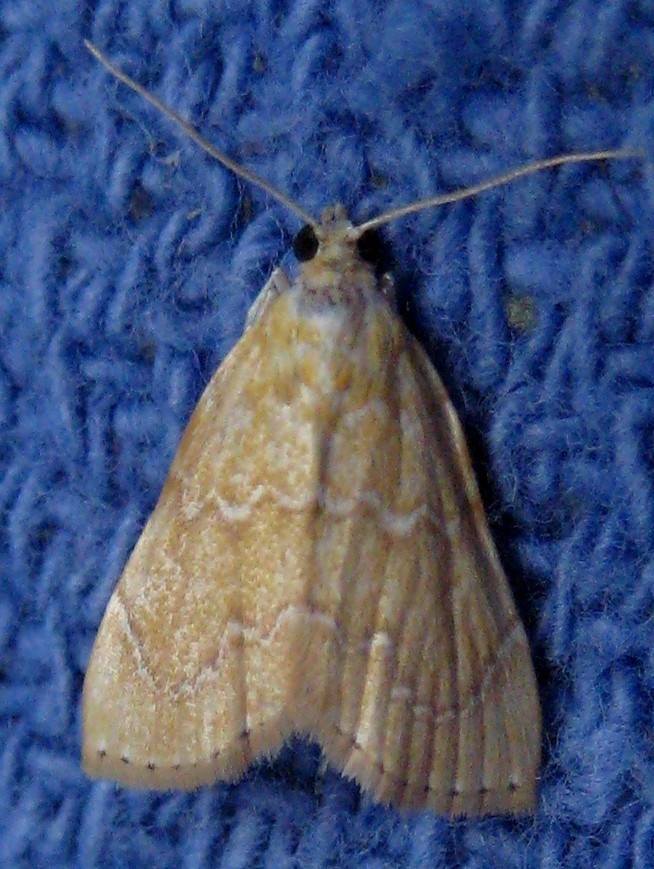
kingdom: Animalia
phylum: Arthropoda
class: Insecta
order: Lepidoptera
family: Crambidae
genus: Glaphyria
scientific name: Glaphyria sesquistrialis
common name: White-roped glaphyria
